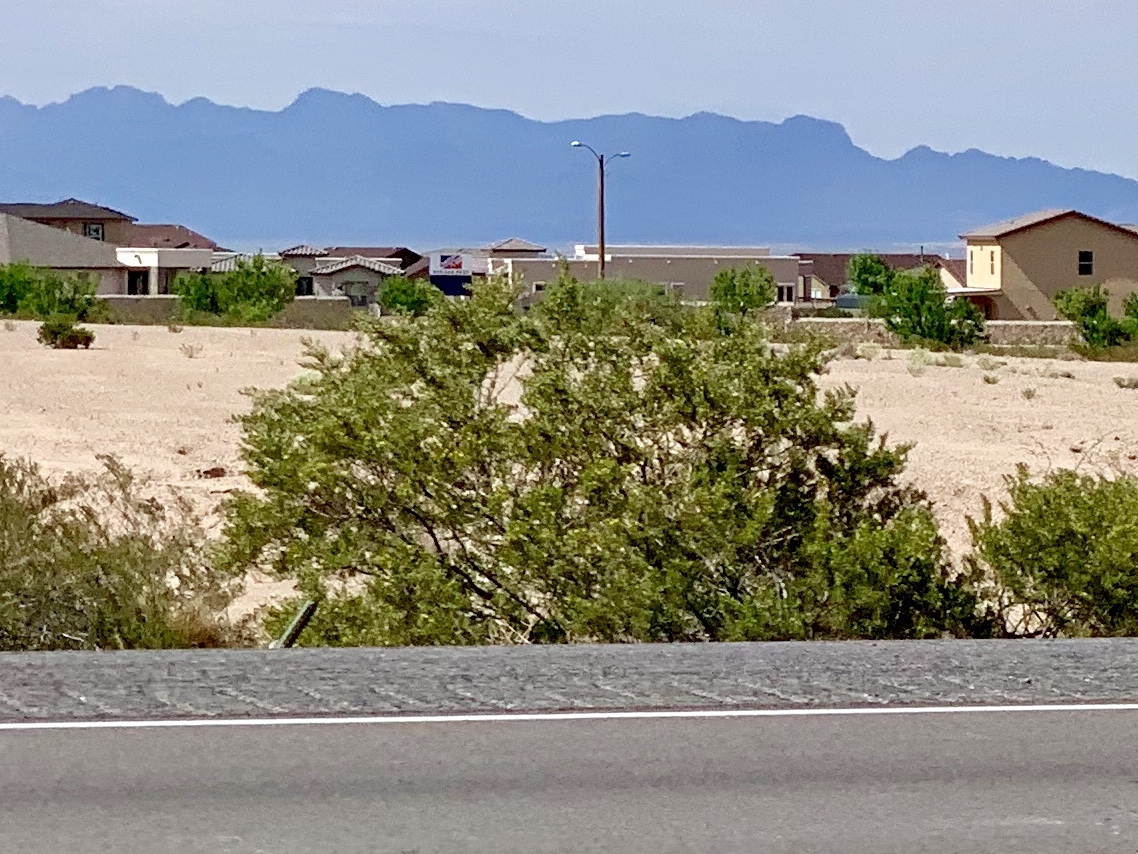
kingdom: Plantae
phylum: Tracheophyta
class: Magnoliopsida
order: Zygophyllales
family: Zygophyllaceae
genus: Larrea
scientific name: Larrea tridentata
